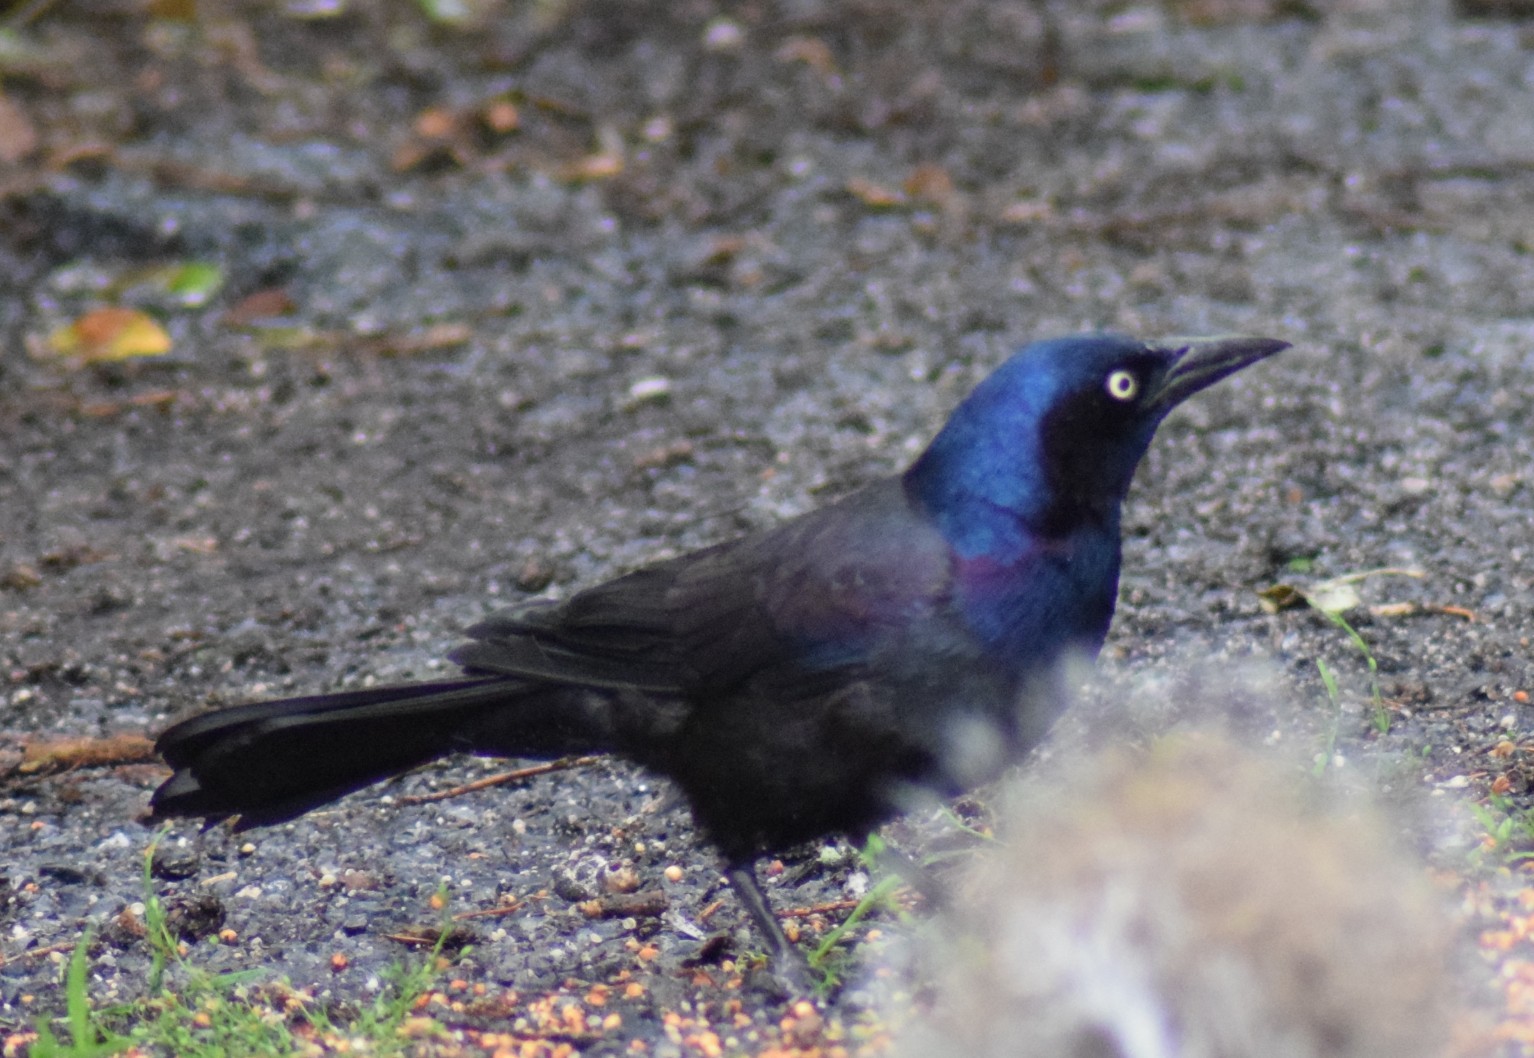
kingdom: Animalia
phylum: Chordata
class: Aves
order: Passeriformes
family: Icteridae
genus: Quiscalus
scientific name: Quiscalus quiscula
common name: Common grackle
